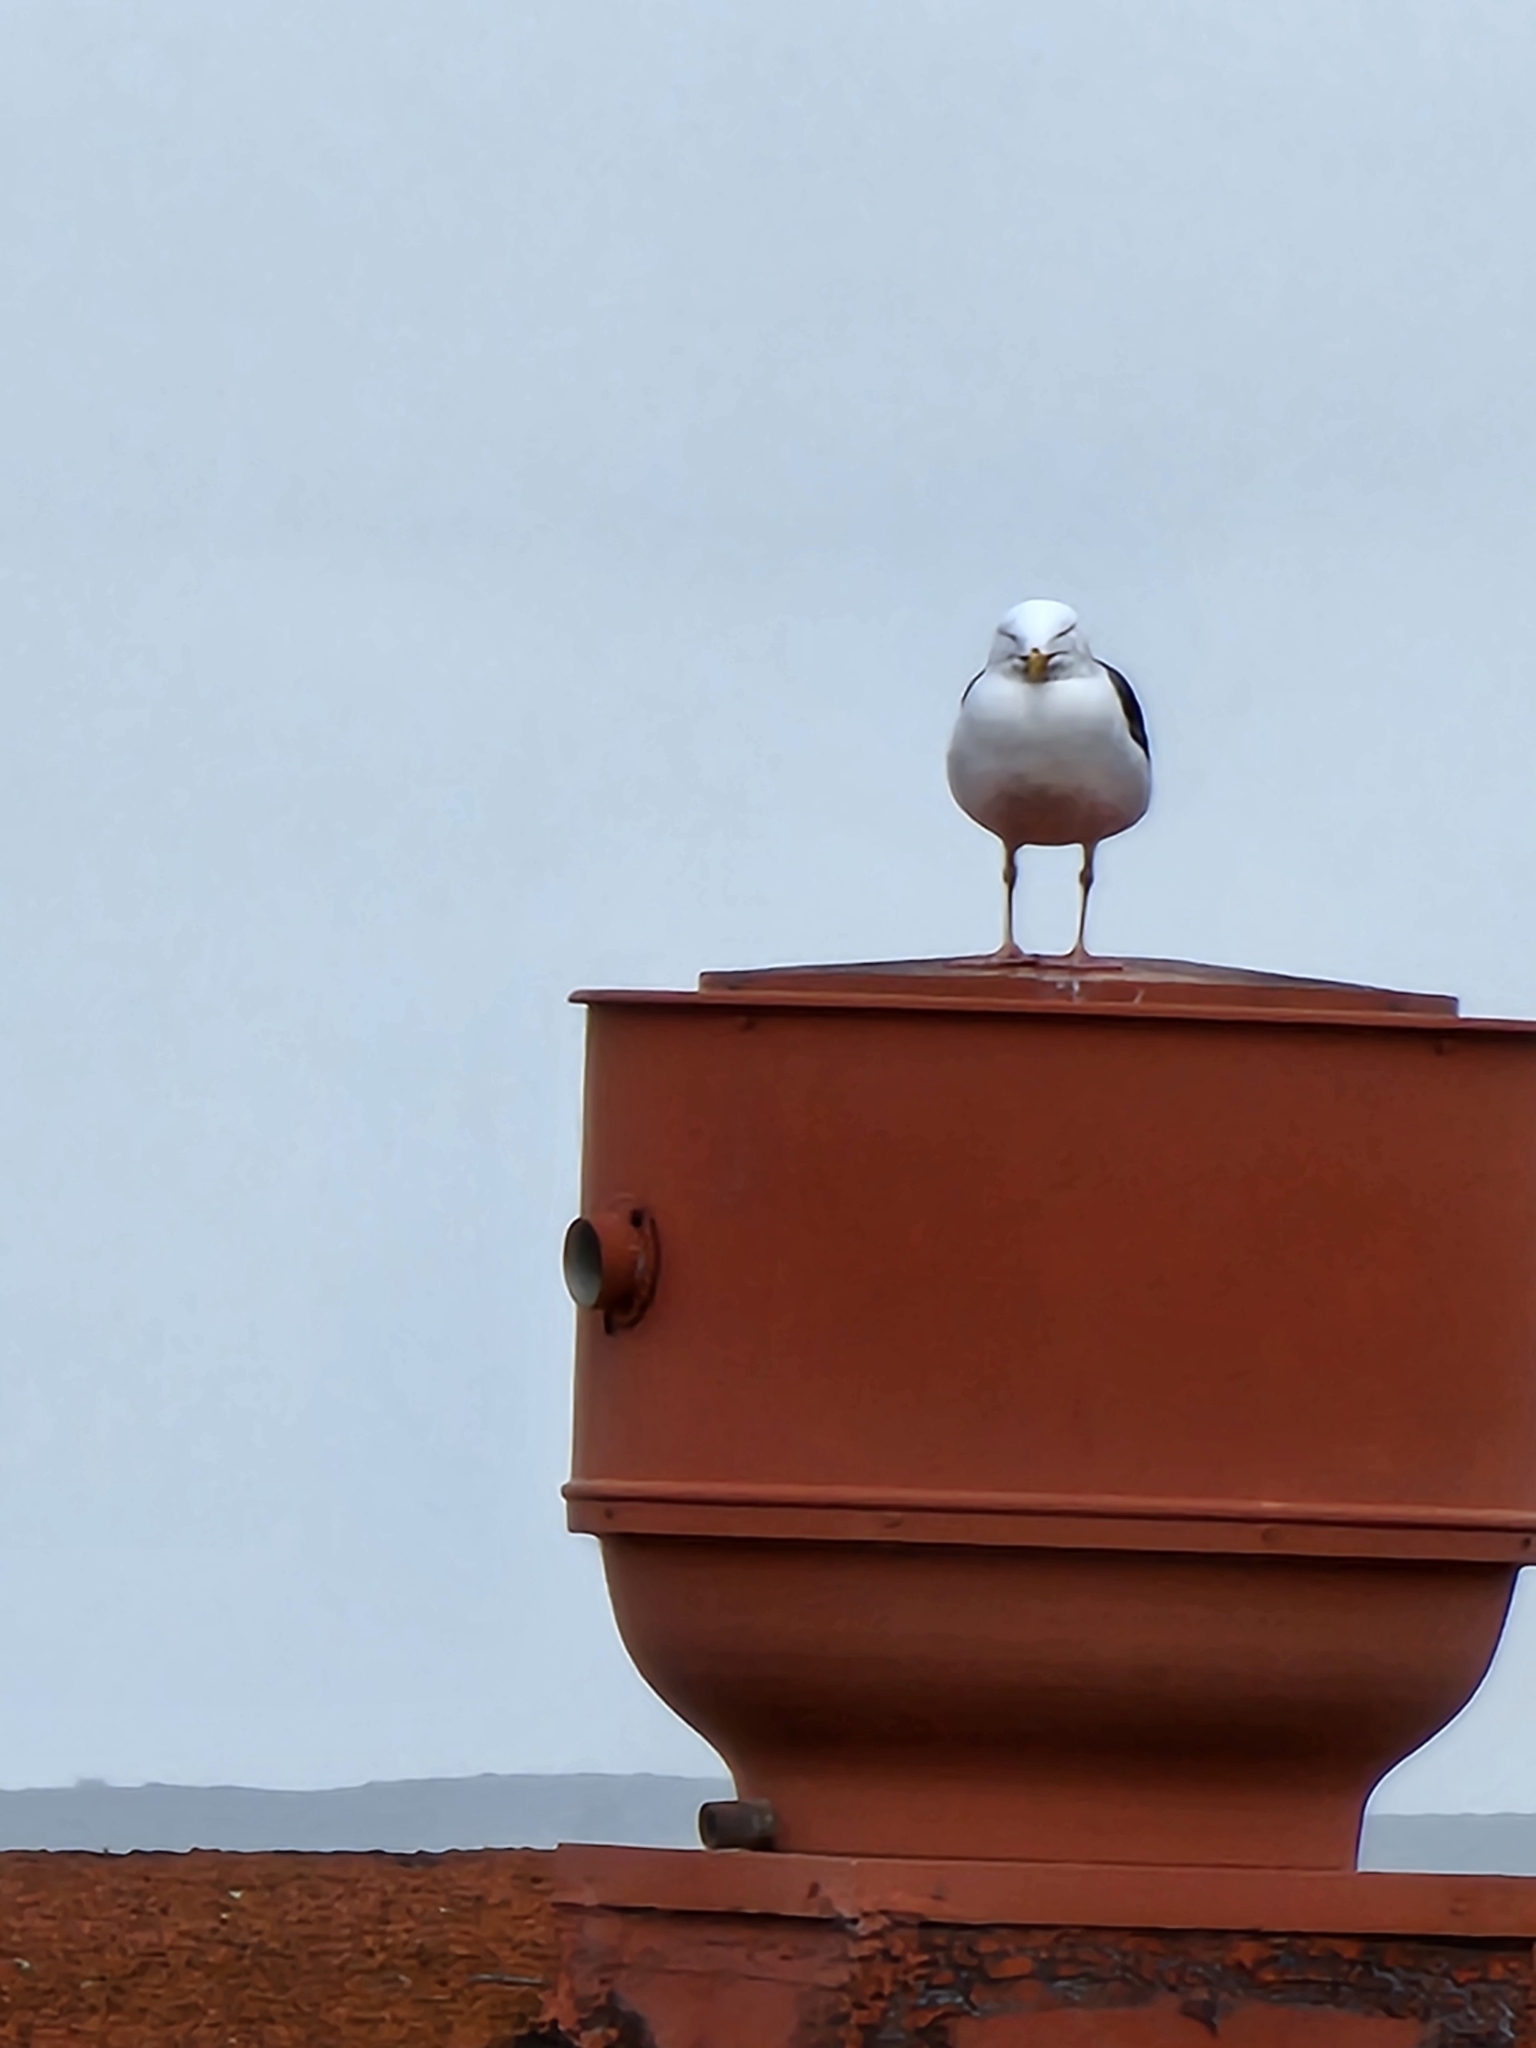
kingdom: Animalia
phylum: Chordata
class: Aves
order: Charadriiformes
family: Laridae
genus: Larus
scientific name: Larus occidentalis
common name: Western gull
